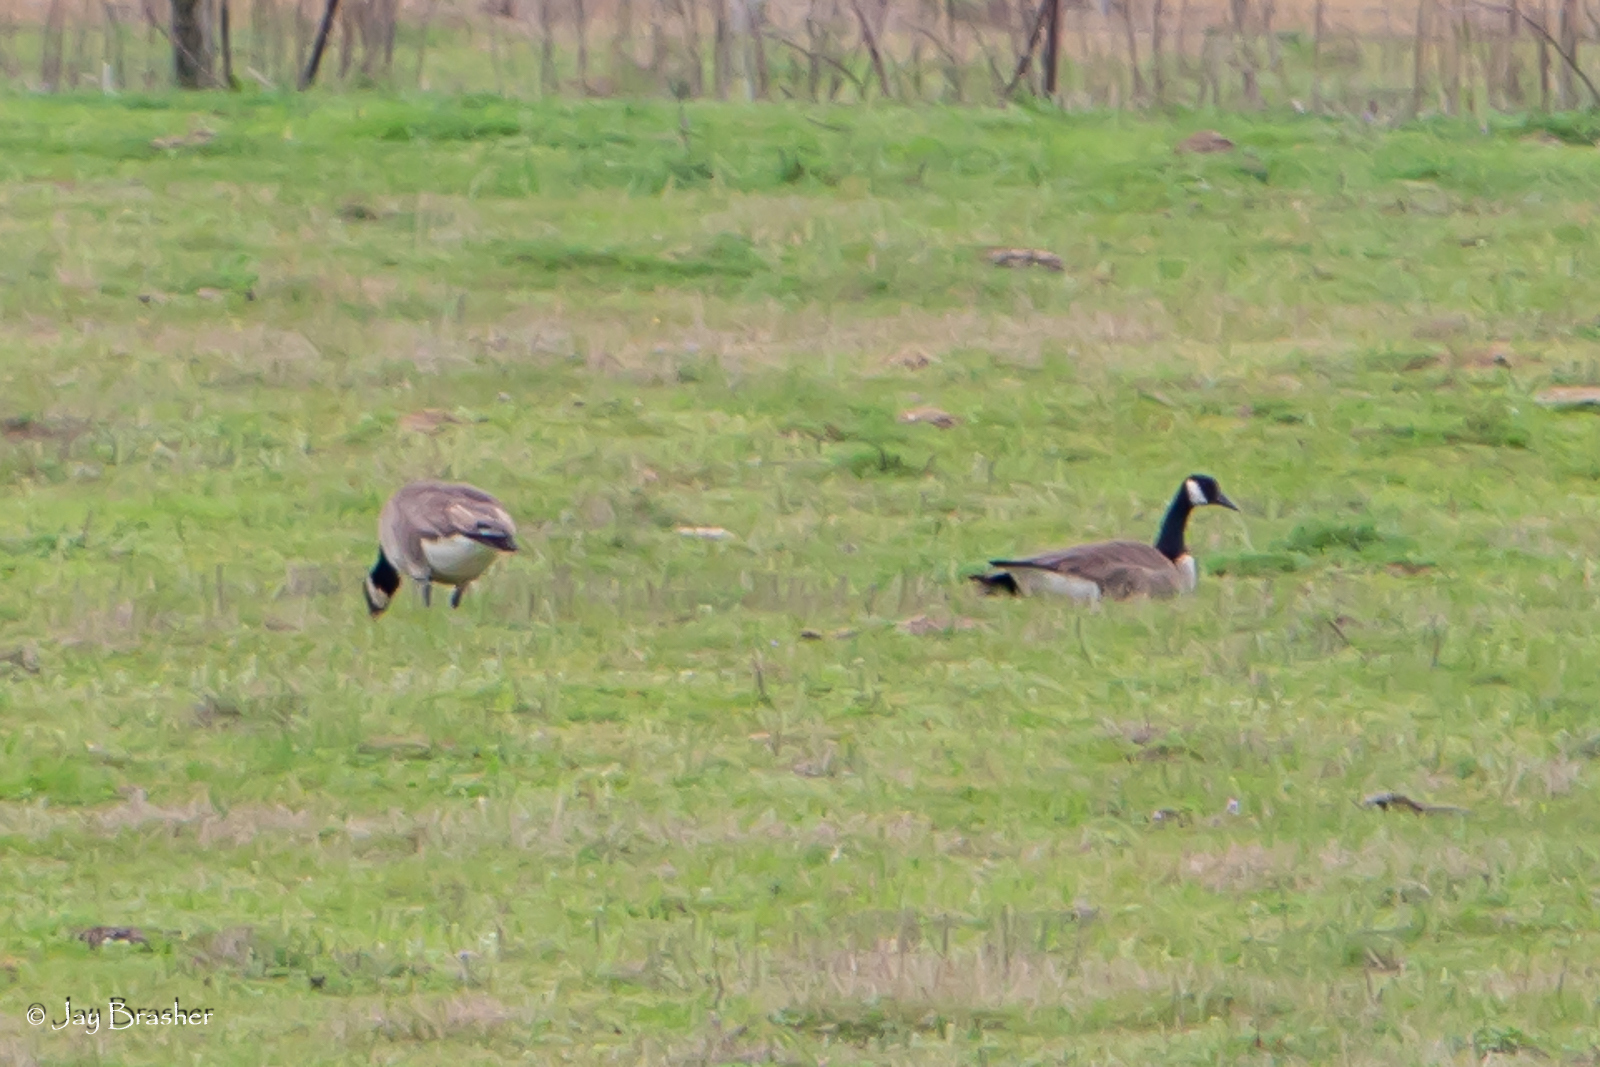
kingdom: Animalia
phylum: Chordata
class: Aves
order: Anseriformes
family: Anatidae
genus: Branta
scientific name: Branta canadensis
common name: Canada goose
